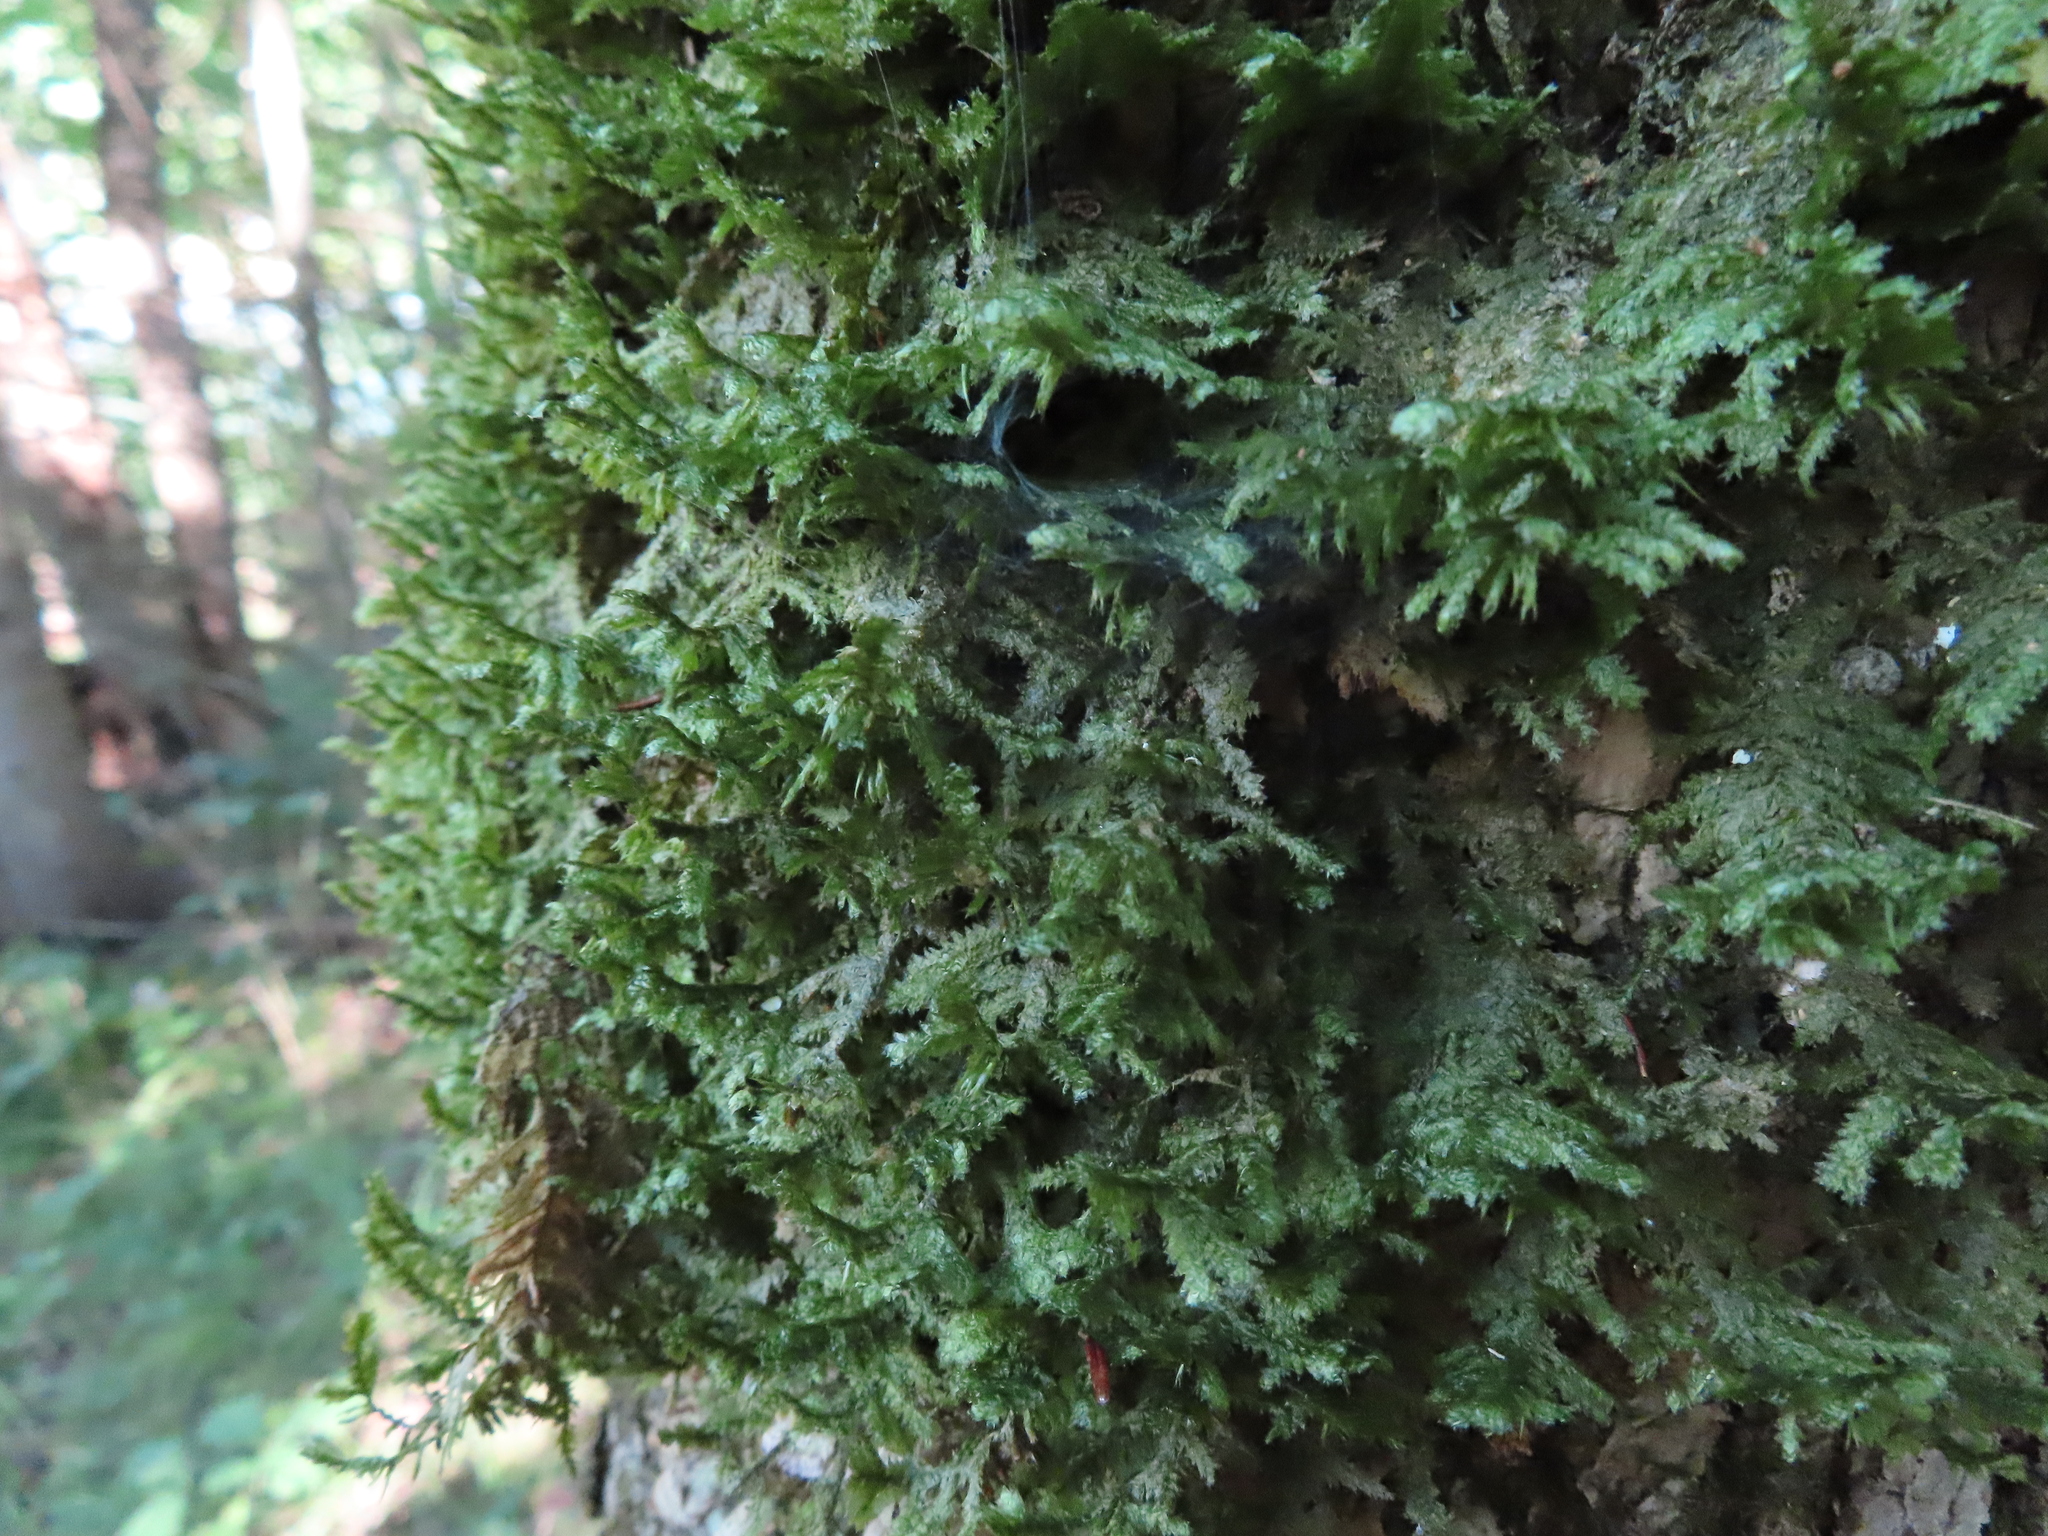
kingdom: Plantae
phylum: Bryophyta
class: Bryopsida
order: Hypnales
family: Neckeraceae
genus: Neckera
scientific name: Neckera pennata
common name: Feathery neckera
